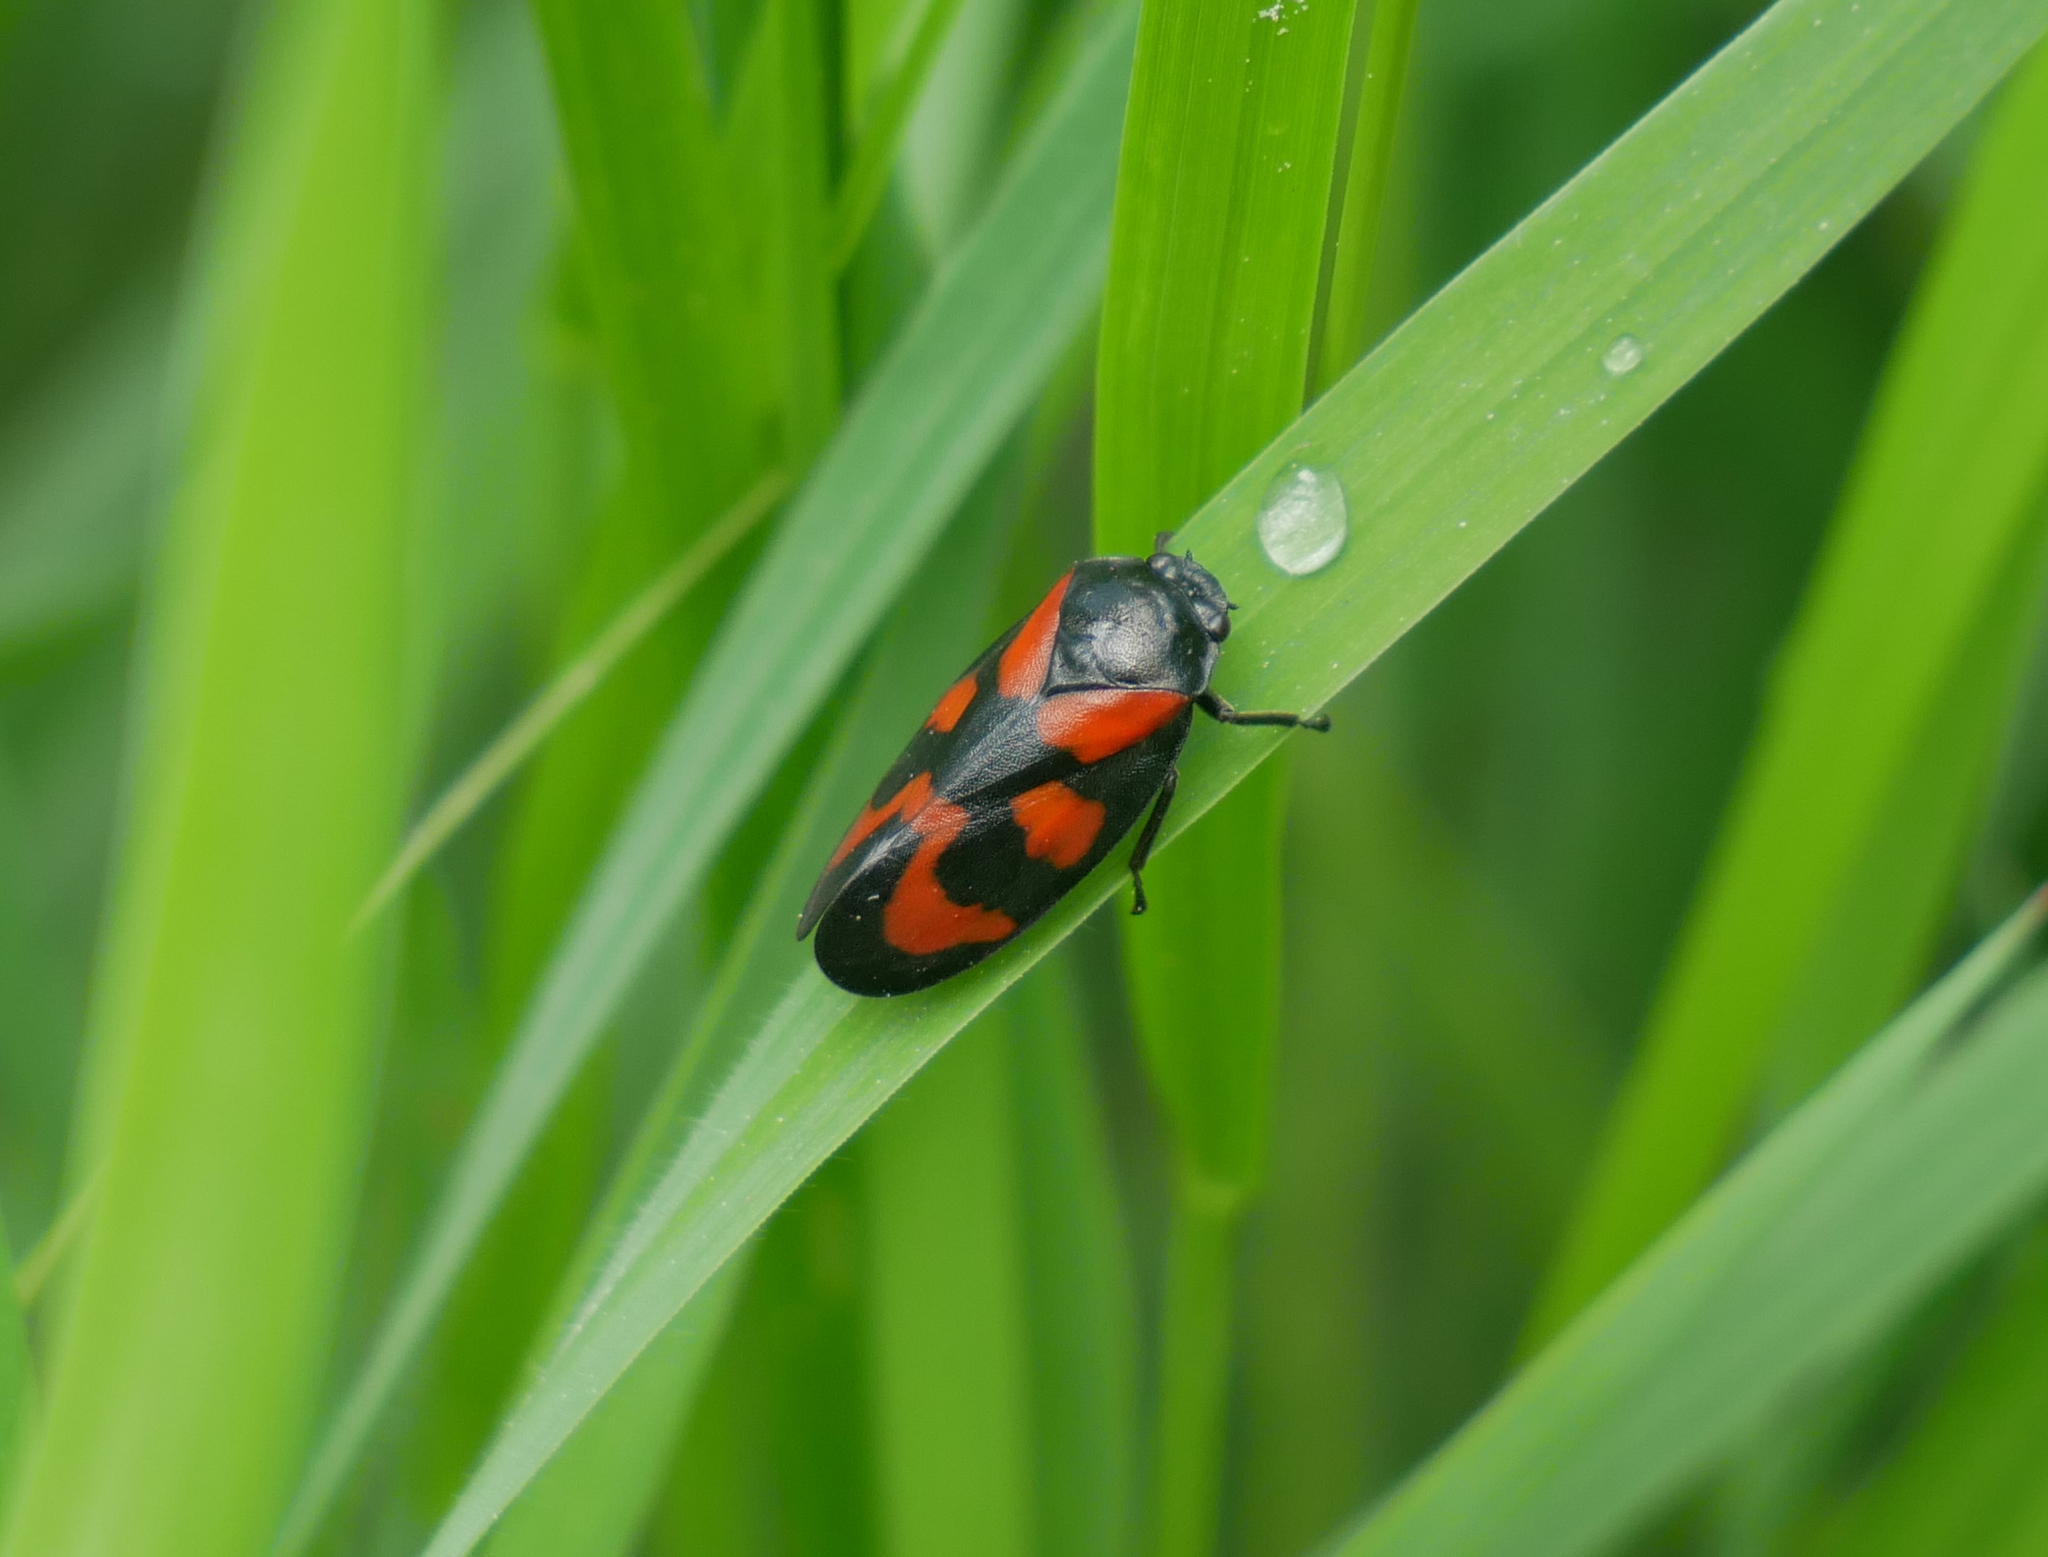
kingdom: Animalia
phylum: Arthropoda
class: Insecta
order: Hemiptera
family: Cercopidae
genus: Cercopis
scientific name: Cercopis vulnerata
